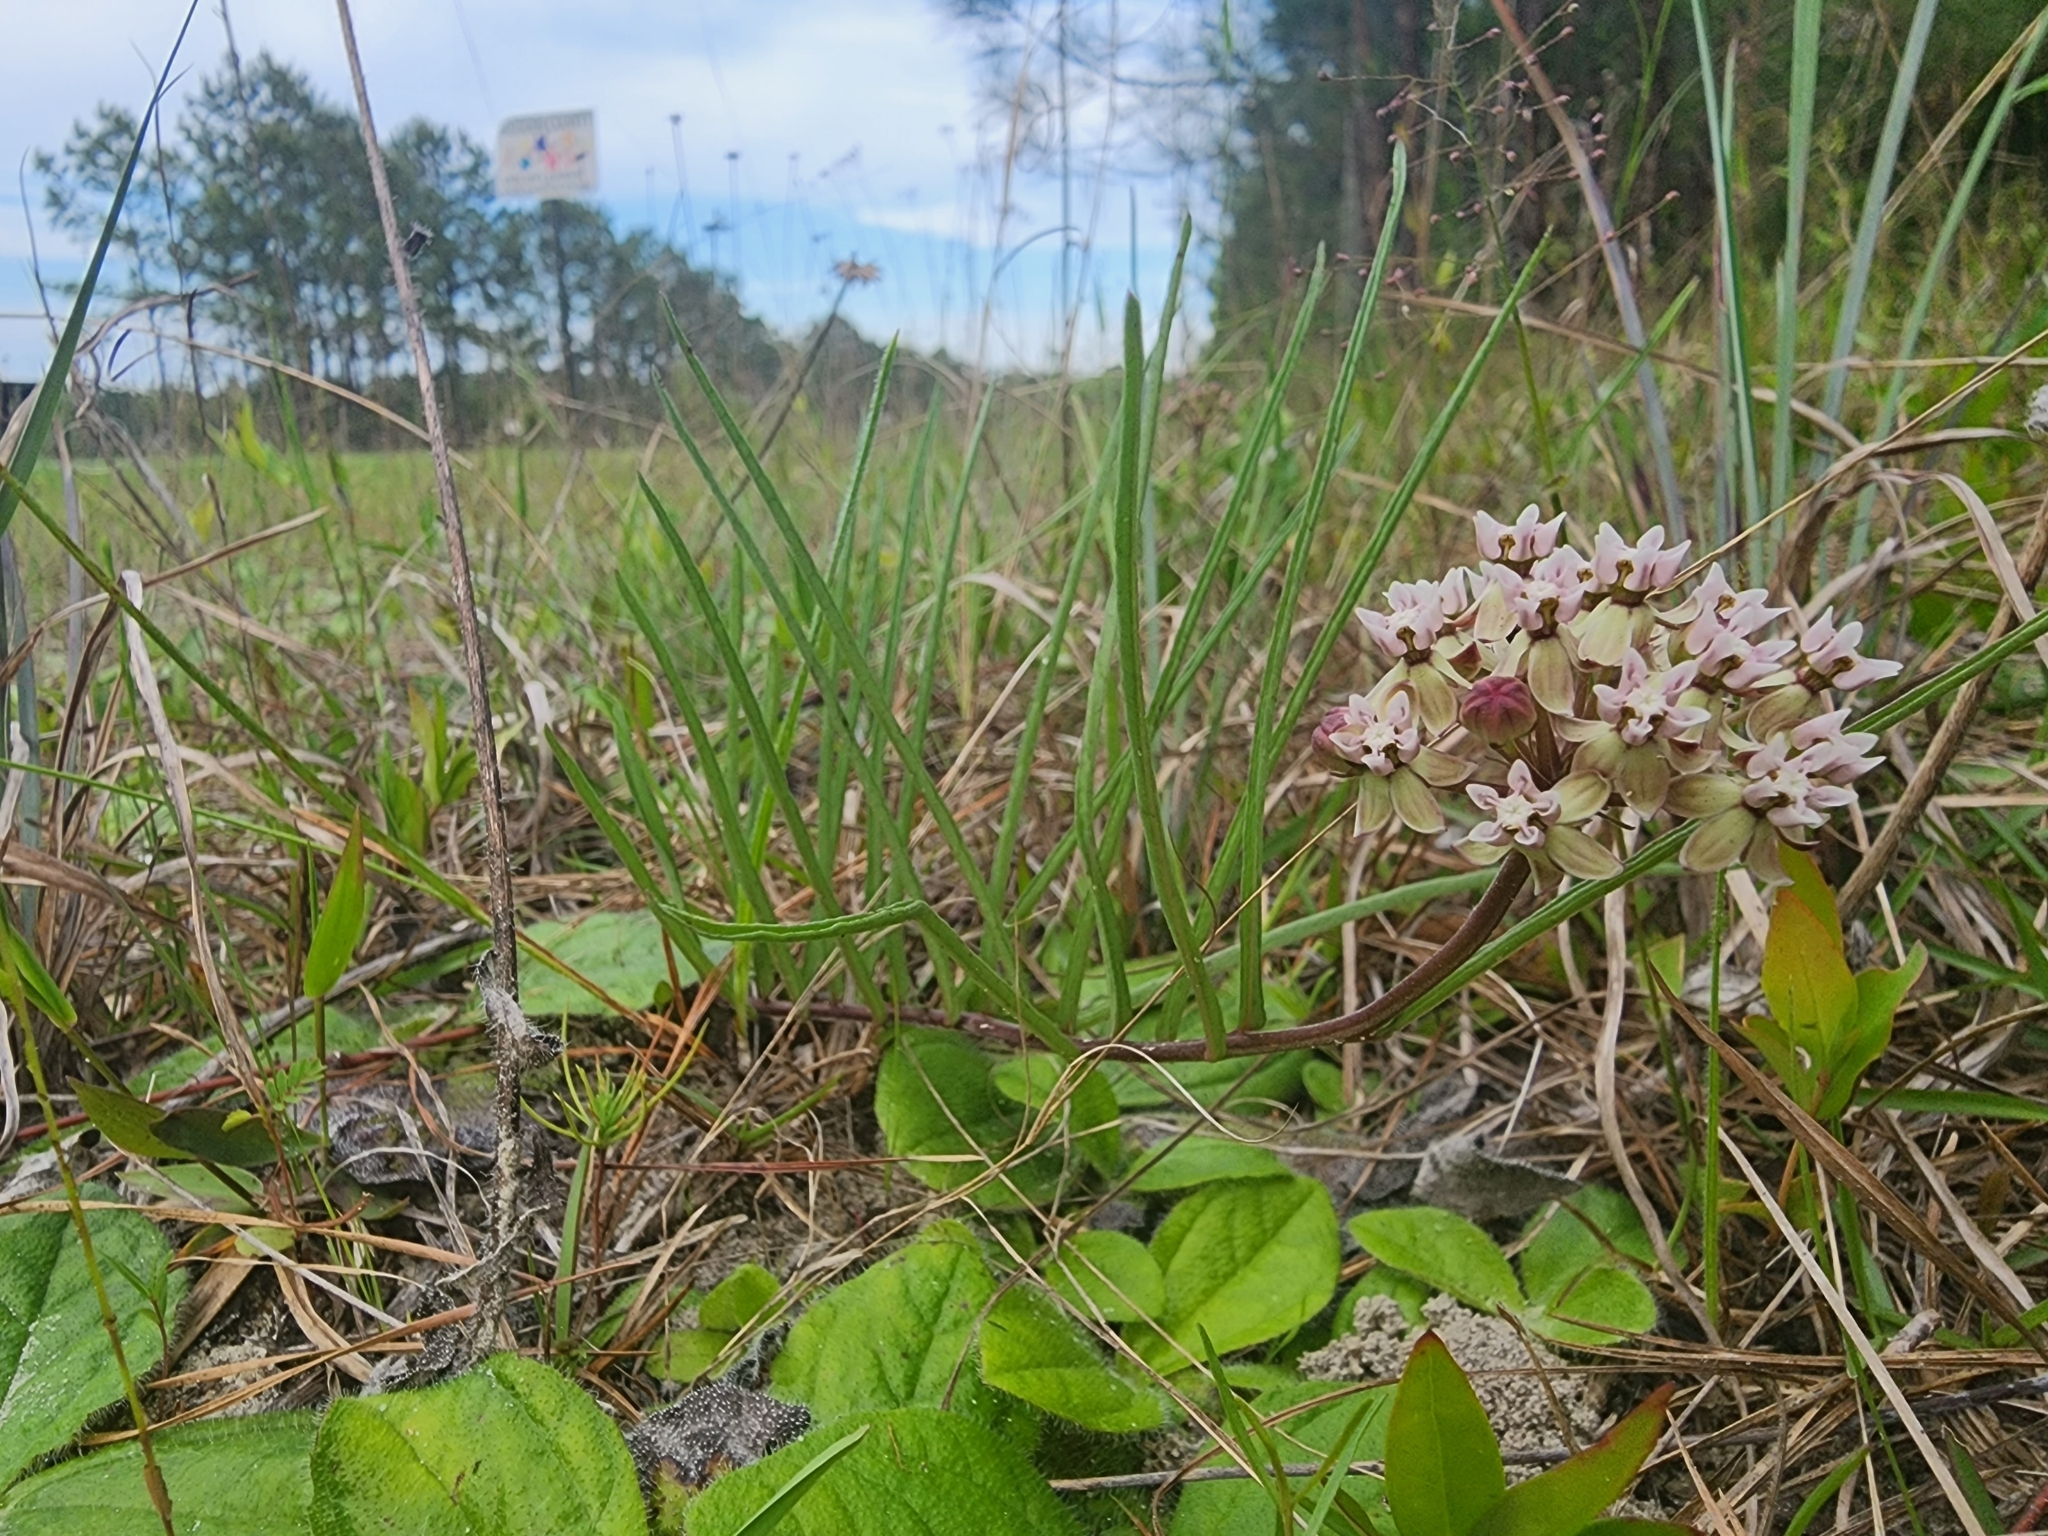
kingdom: Plantae
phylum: Tracheophyta
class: Magnoliopsida
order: Gentianales
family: Apocynaceae
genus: Asclepias
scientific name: Asclepias michauxii
